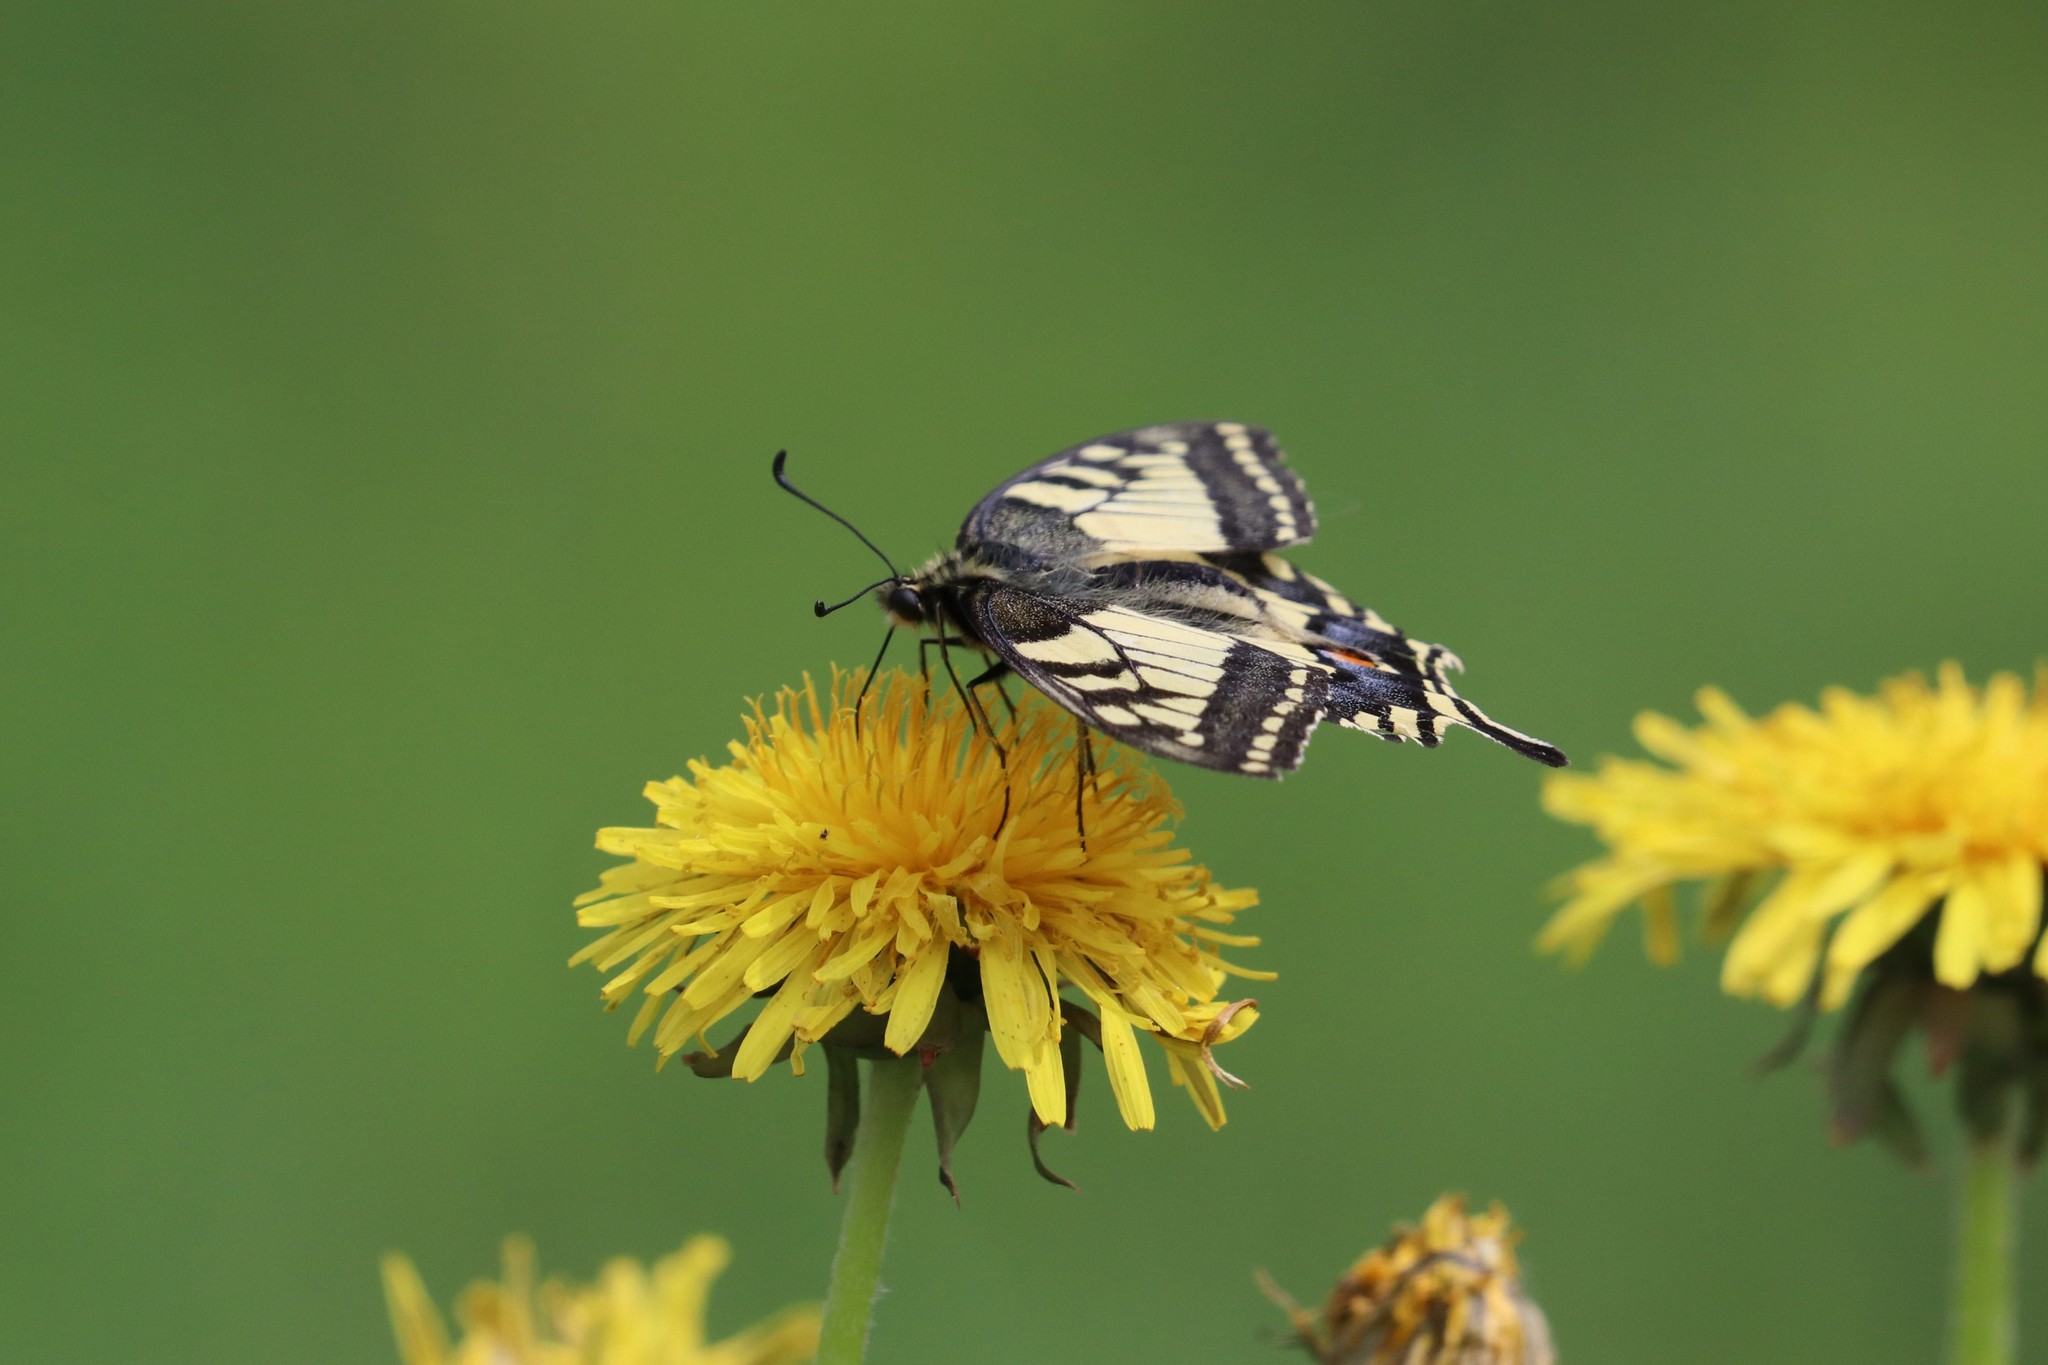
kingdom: Animalia
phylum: Arthropoda
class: Insecta
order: Lepidoptera
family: Papilionidae
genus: Papilio
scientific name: Papilio machaon
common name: Swallowtail
